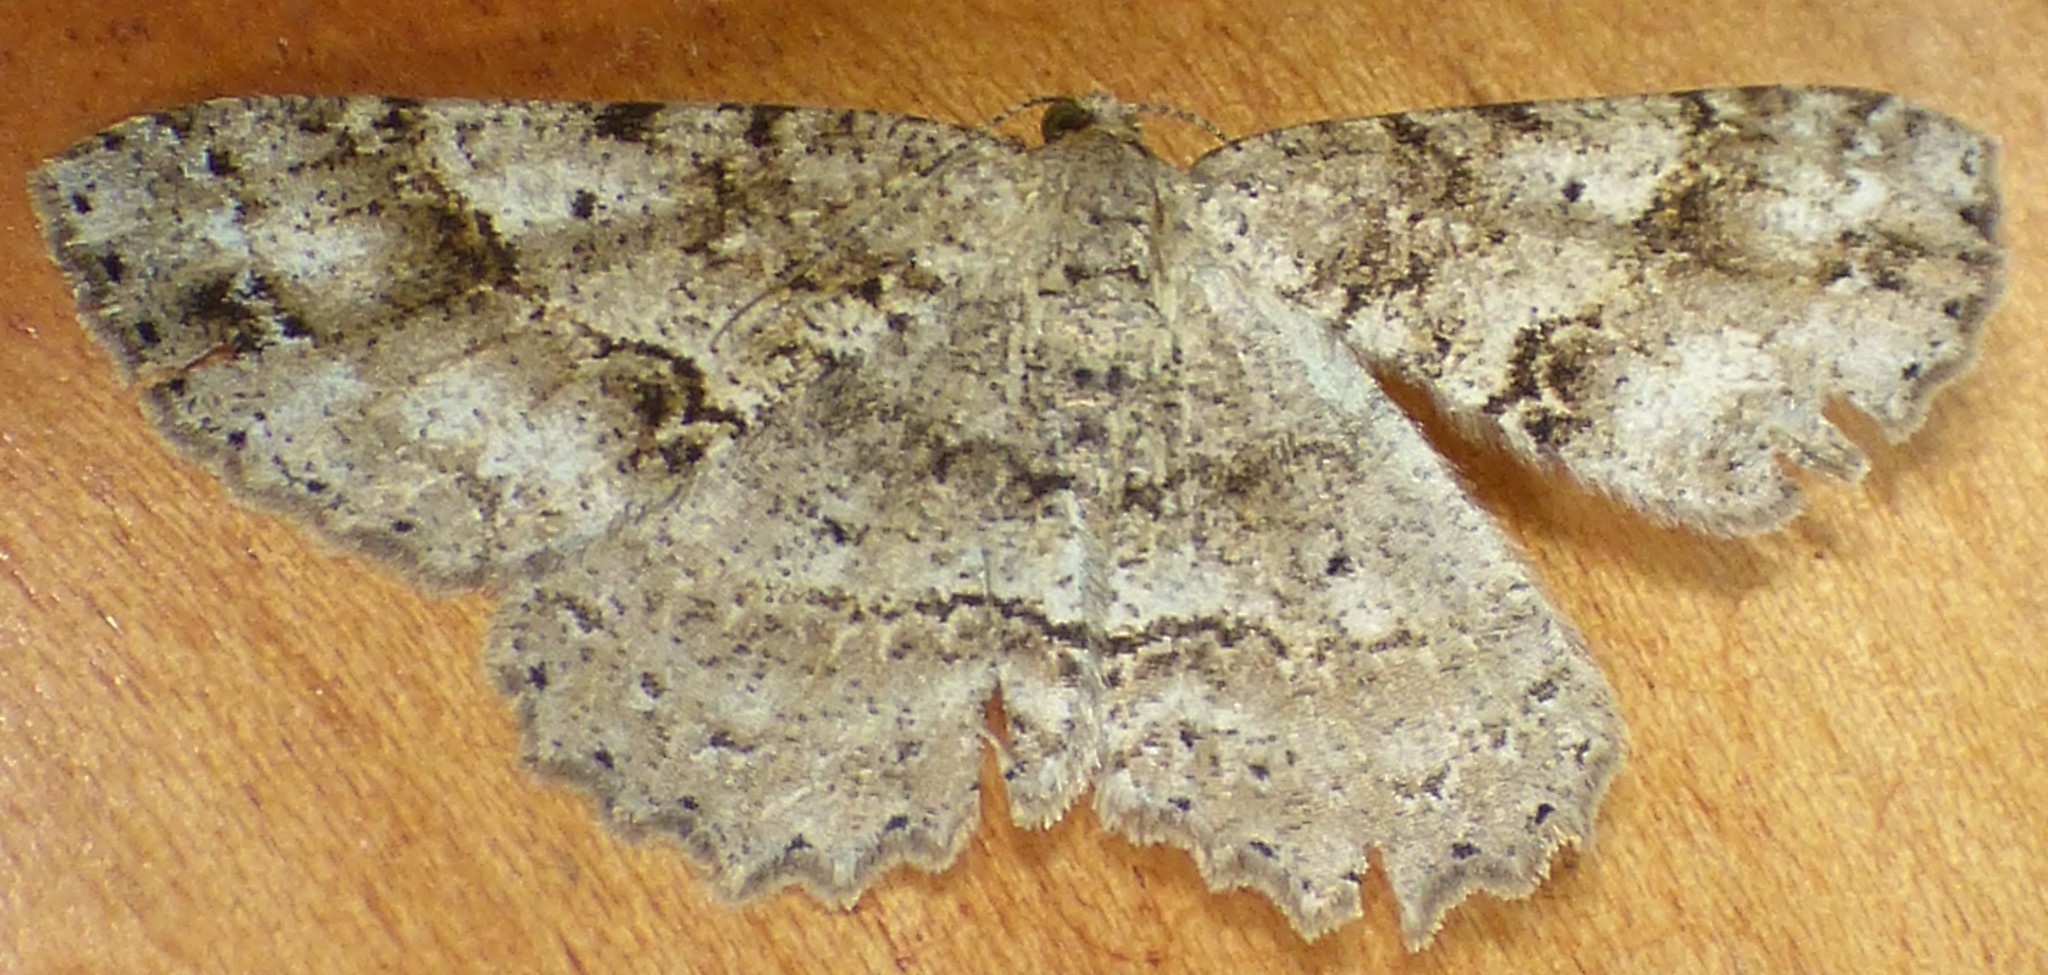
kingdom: Animalia
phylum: Arthropoda
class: Insecta
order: Lepidoptera
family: Geometridae
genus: Melanolophia
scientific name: Melanolophia canadaria
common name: Canadian melanolophia
